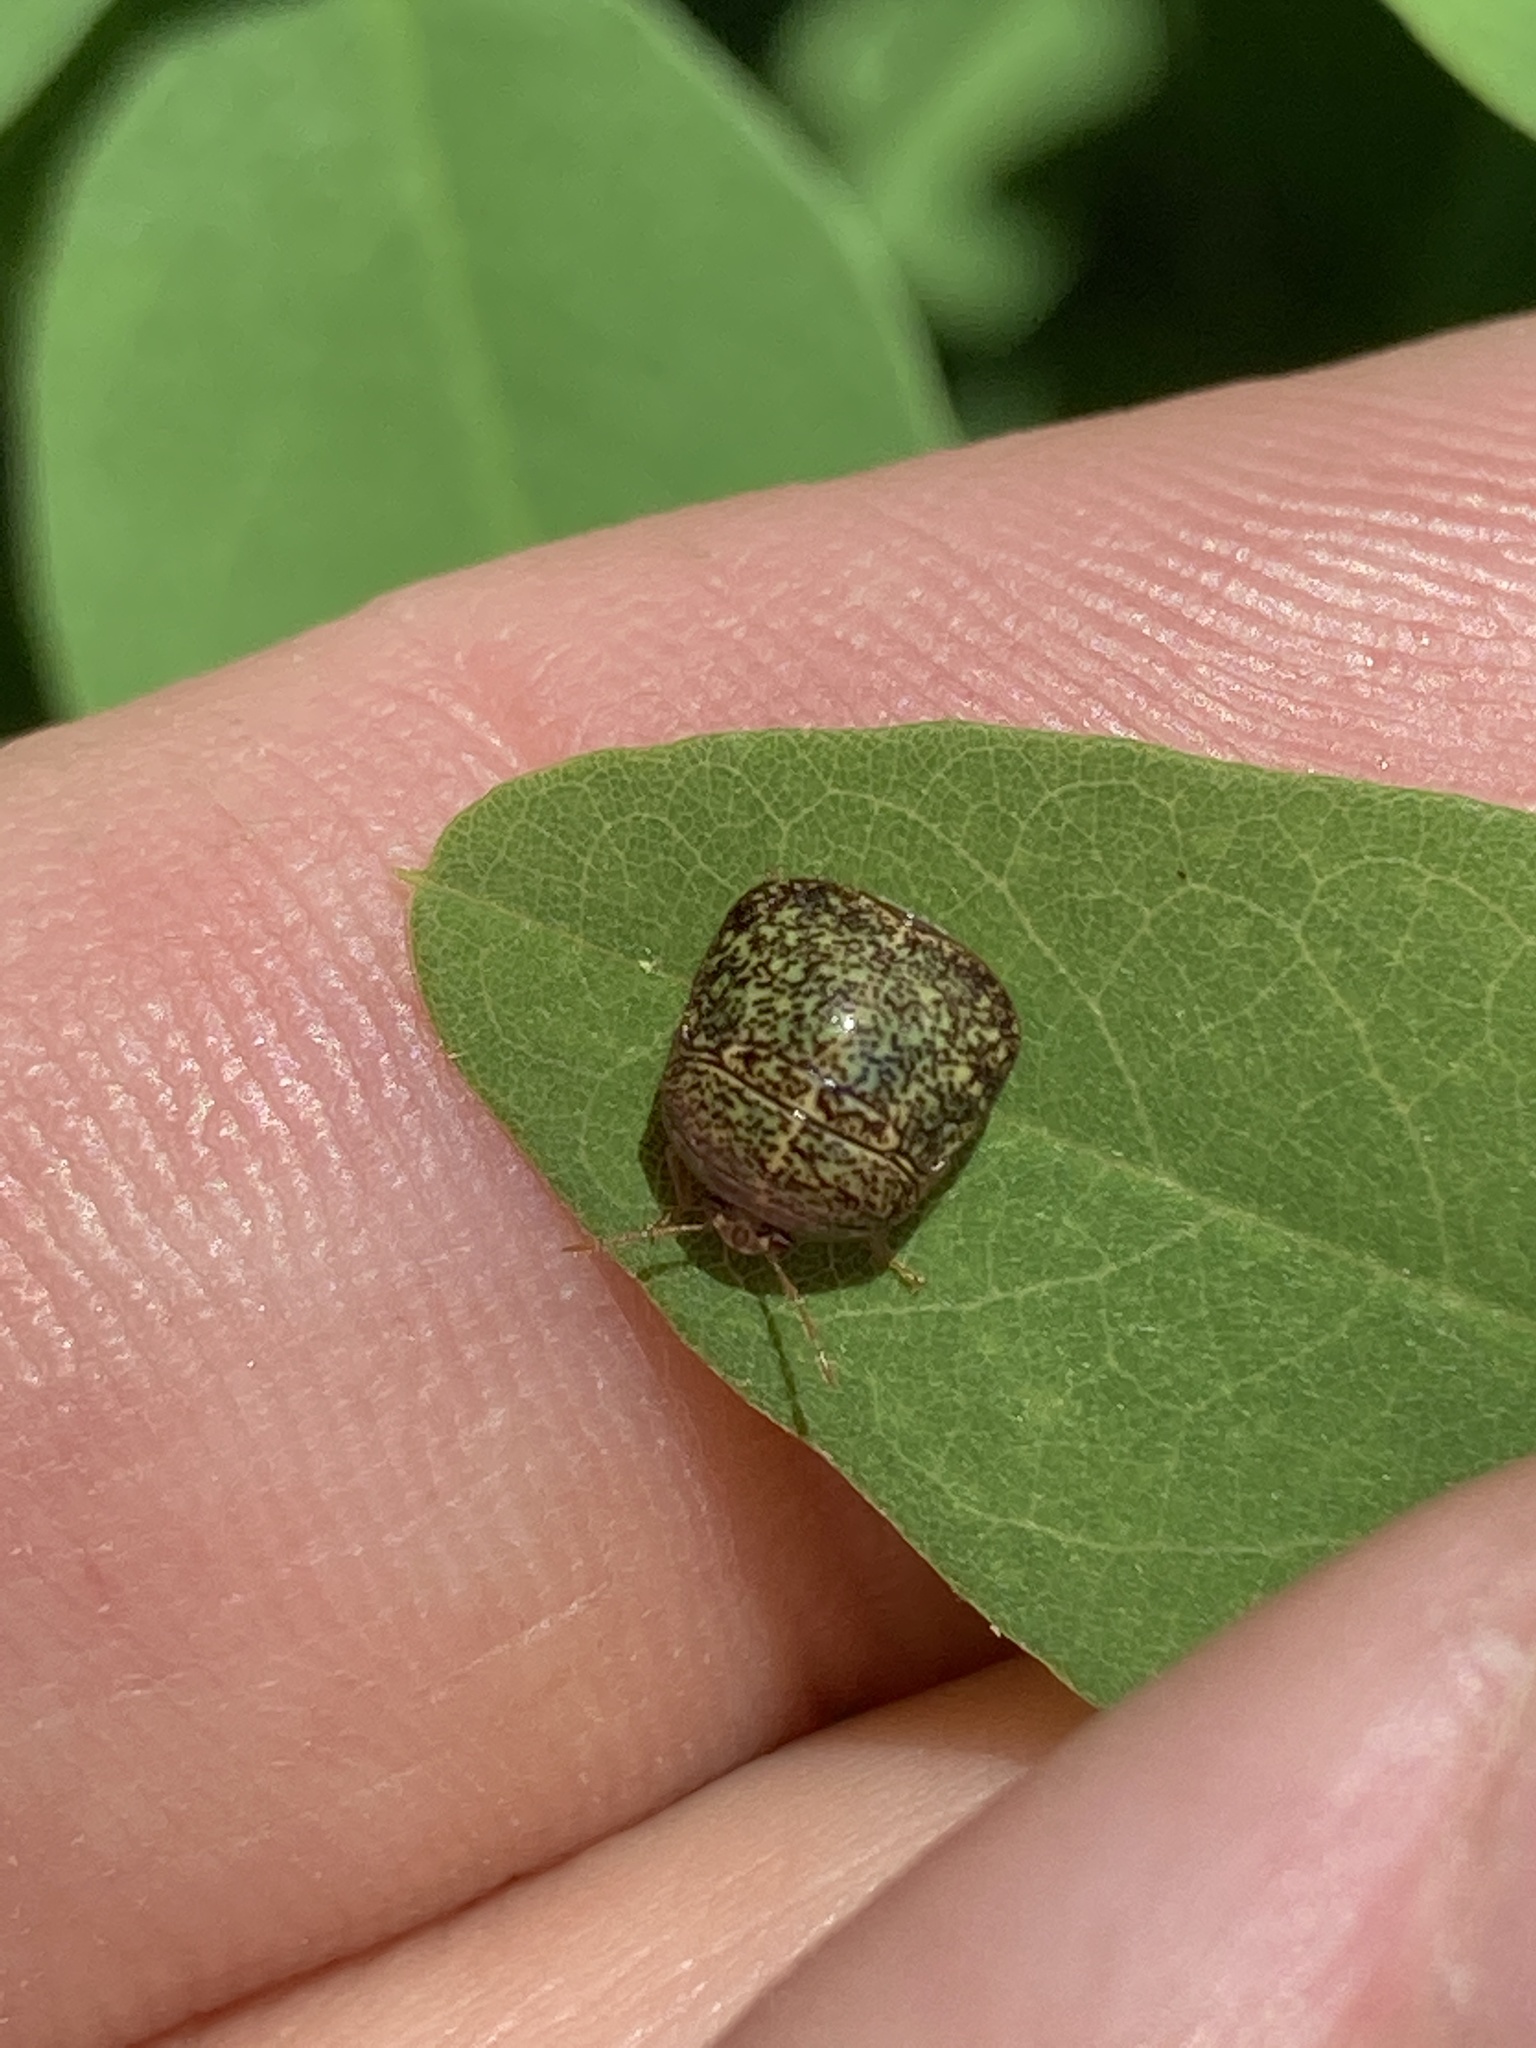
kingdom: Animalia
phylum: Arthropoda
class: Insecta
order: Hemiptera
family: Plataspidae
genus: Megacopta
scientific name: Megacopta cribraria
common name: Bean plataspid
